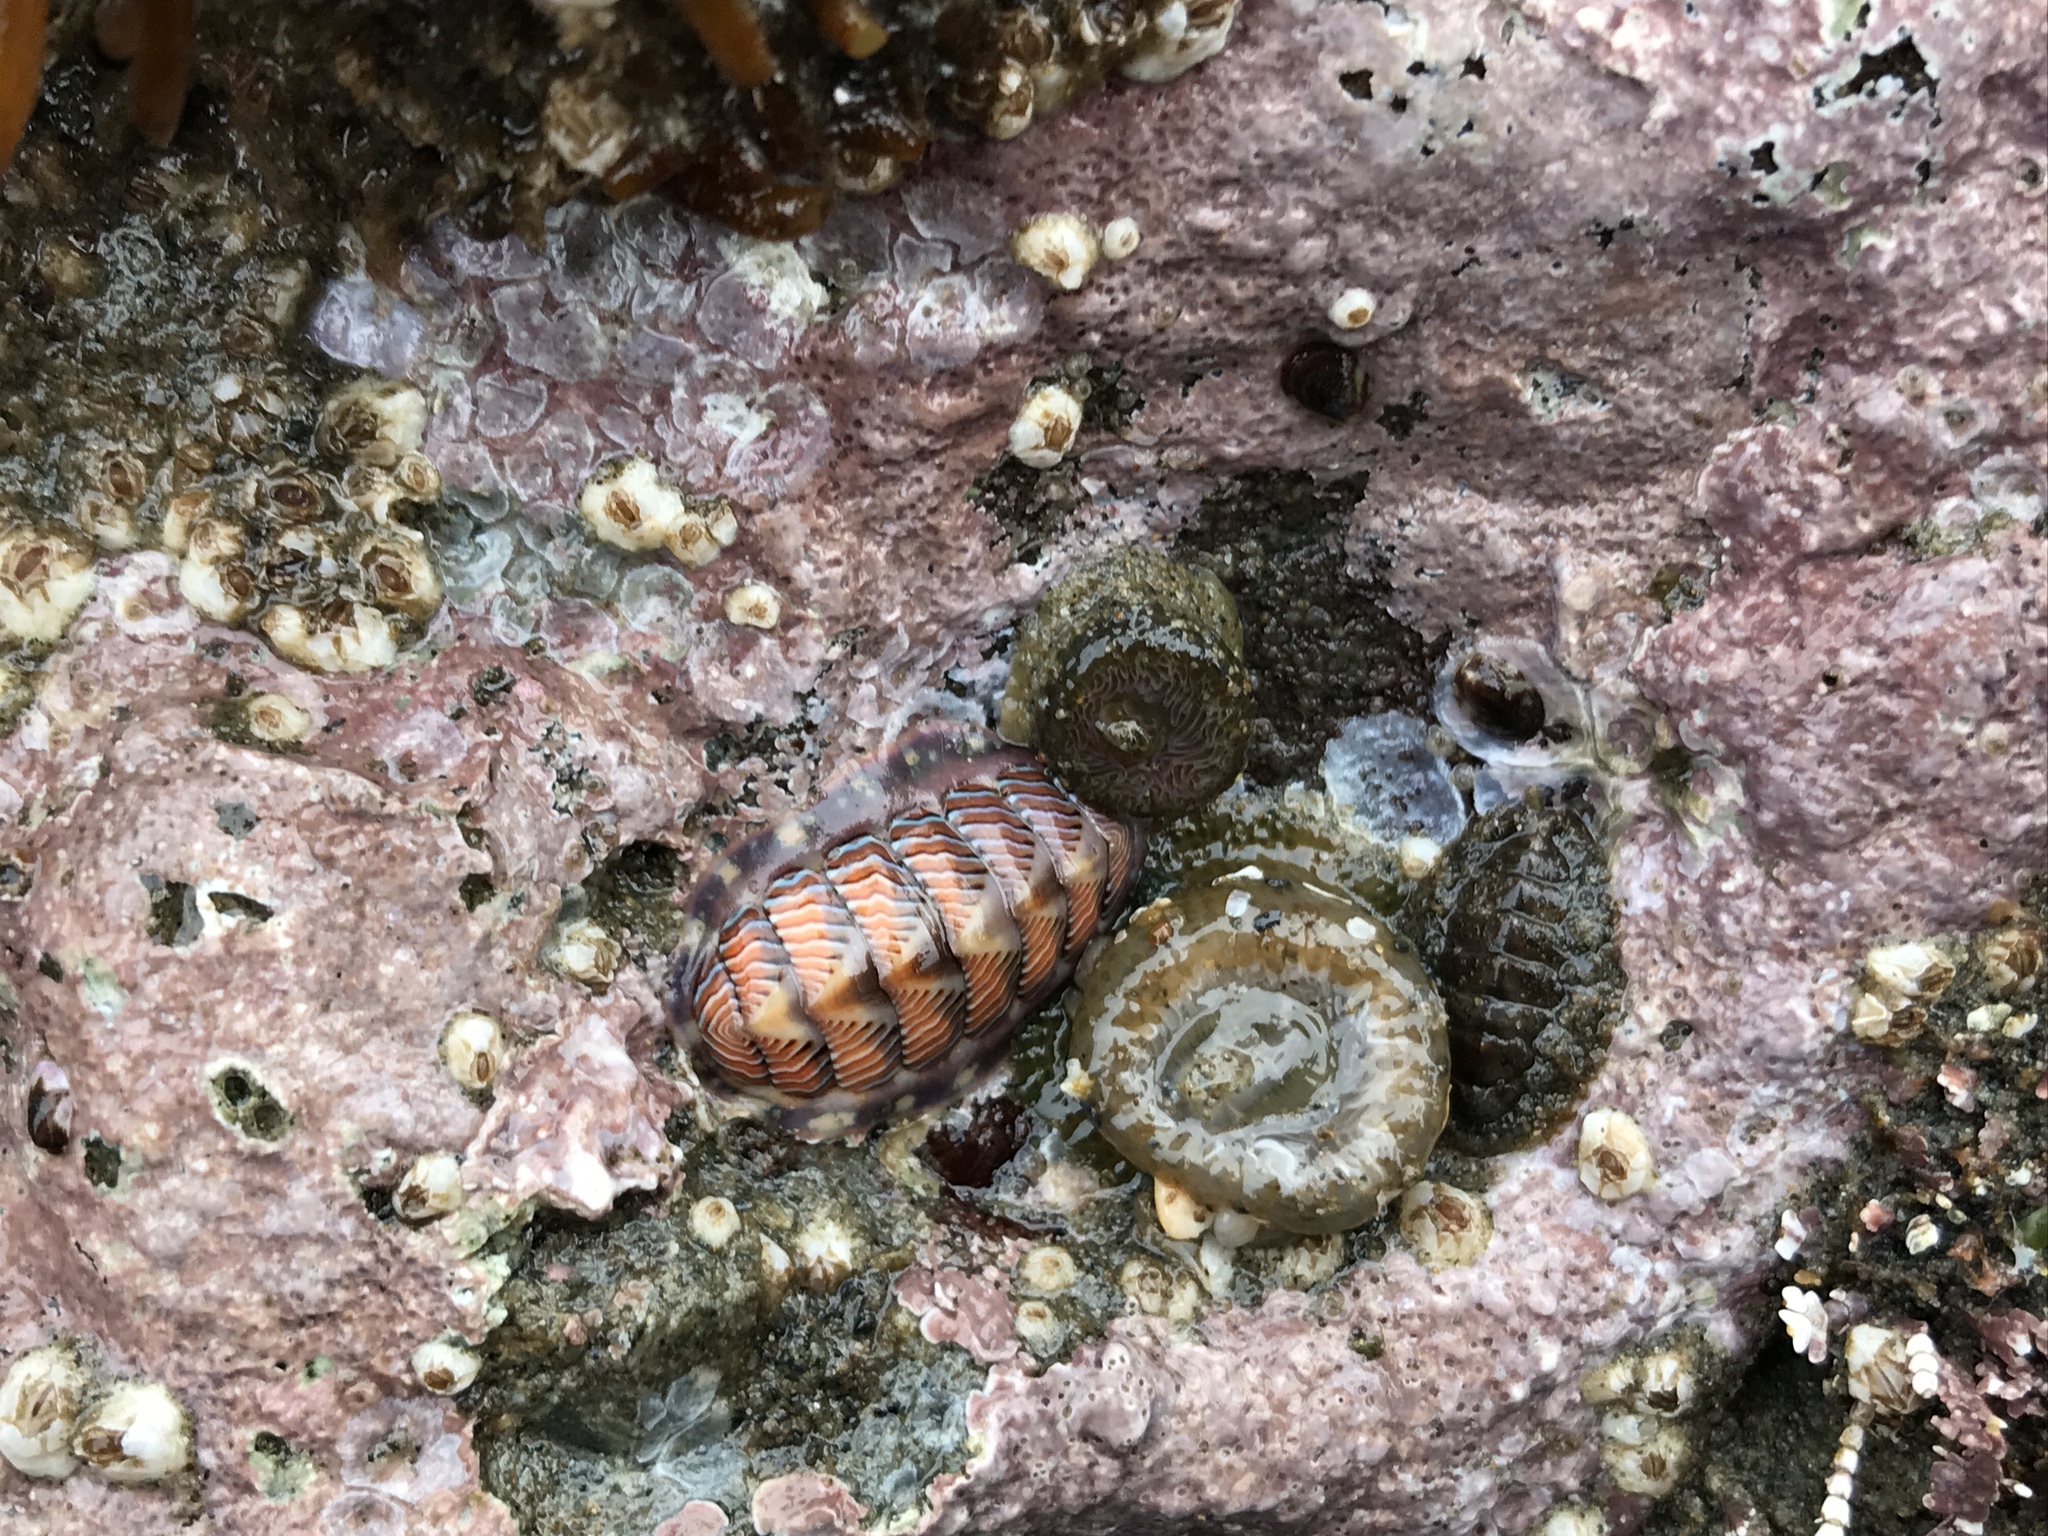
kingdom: Animalia
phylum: Mollusca
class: Polyplacophora
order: Chitonida
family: Tonicellidae
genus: Tonicella
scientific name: Tonicella lineata
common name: Lined chiton
